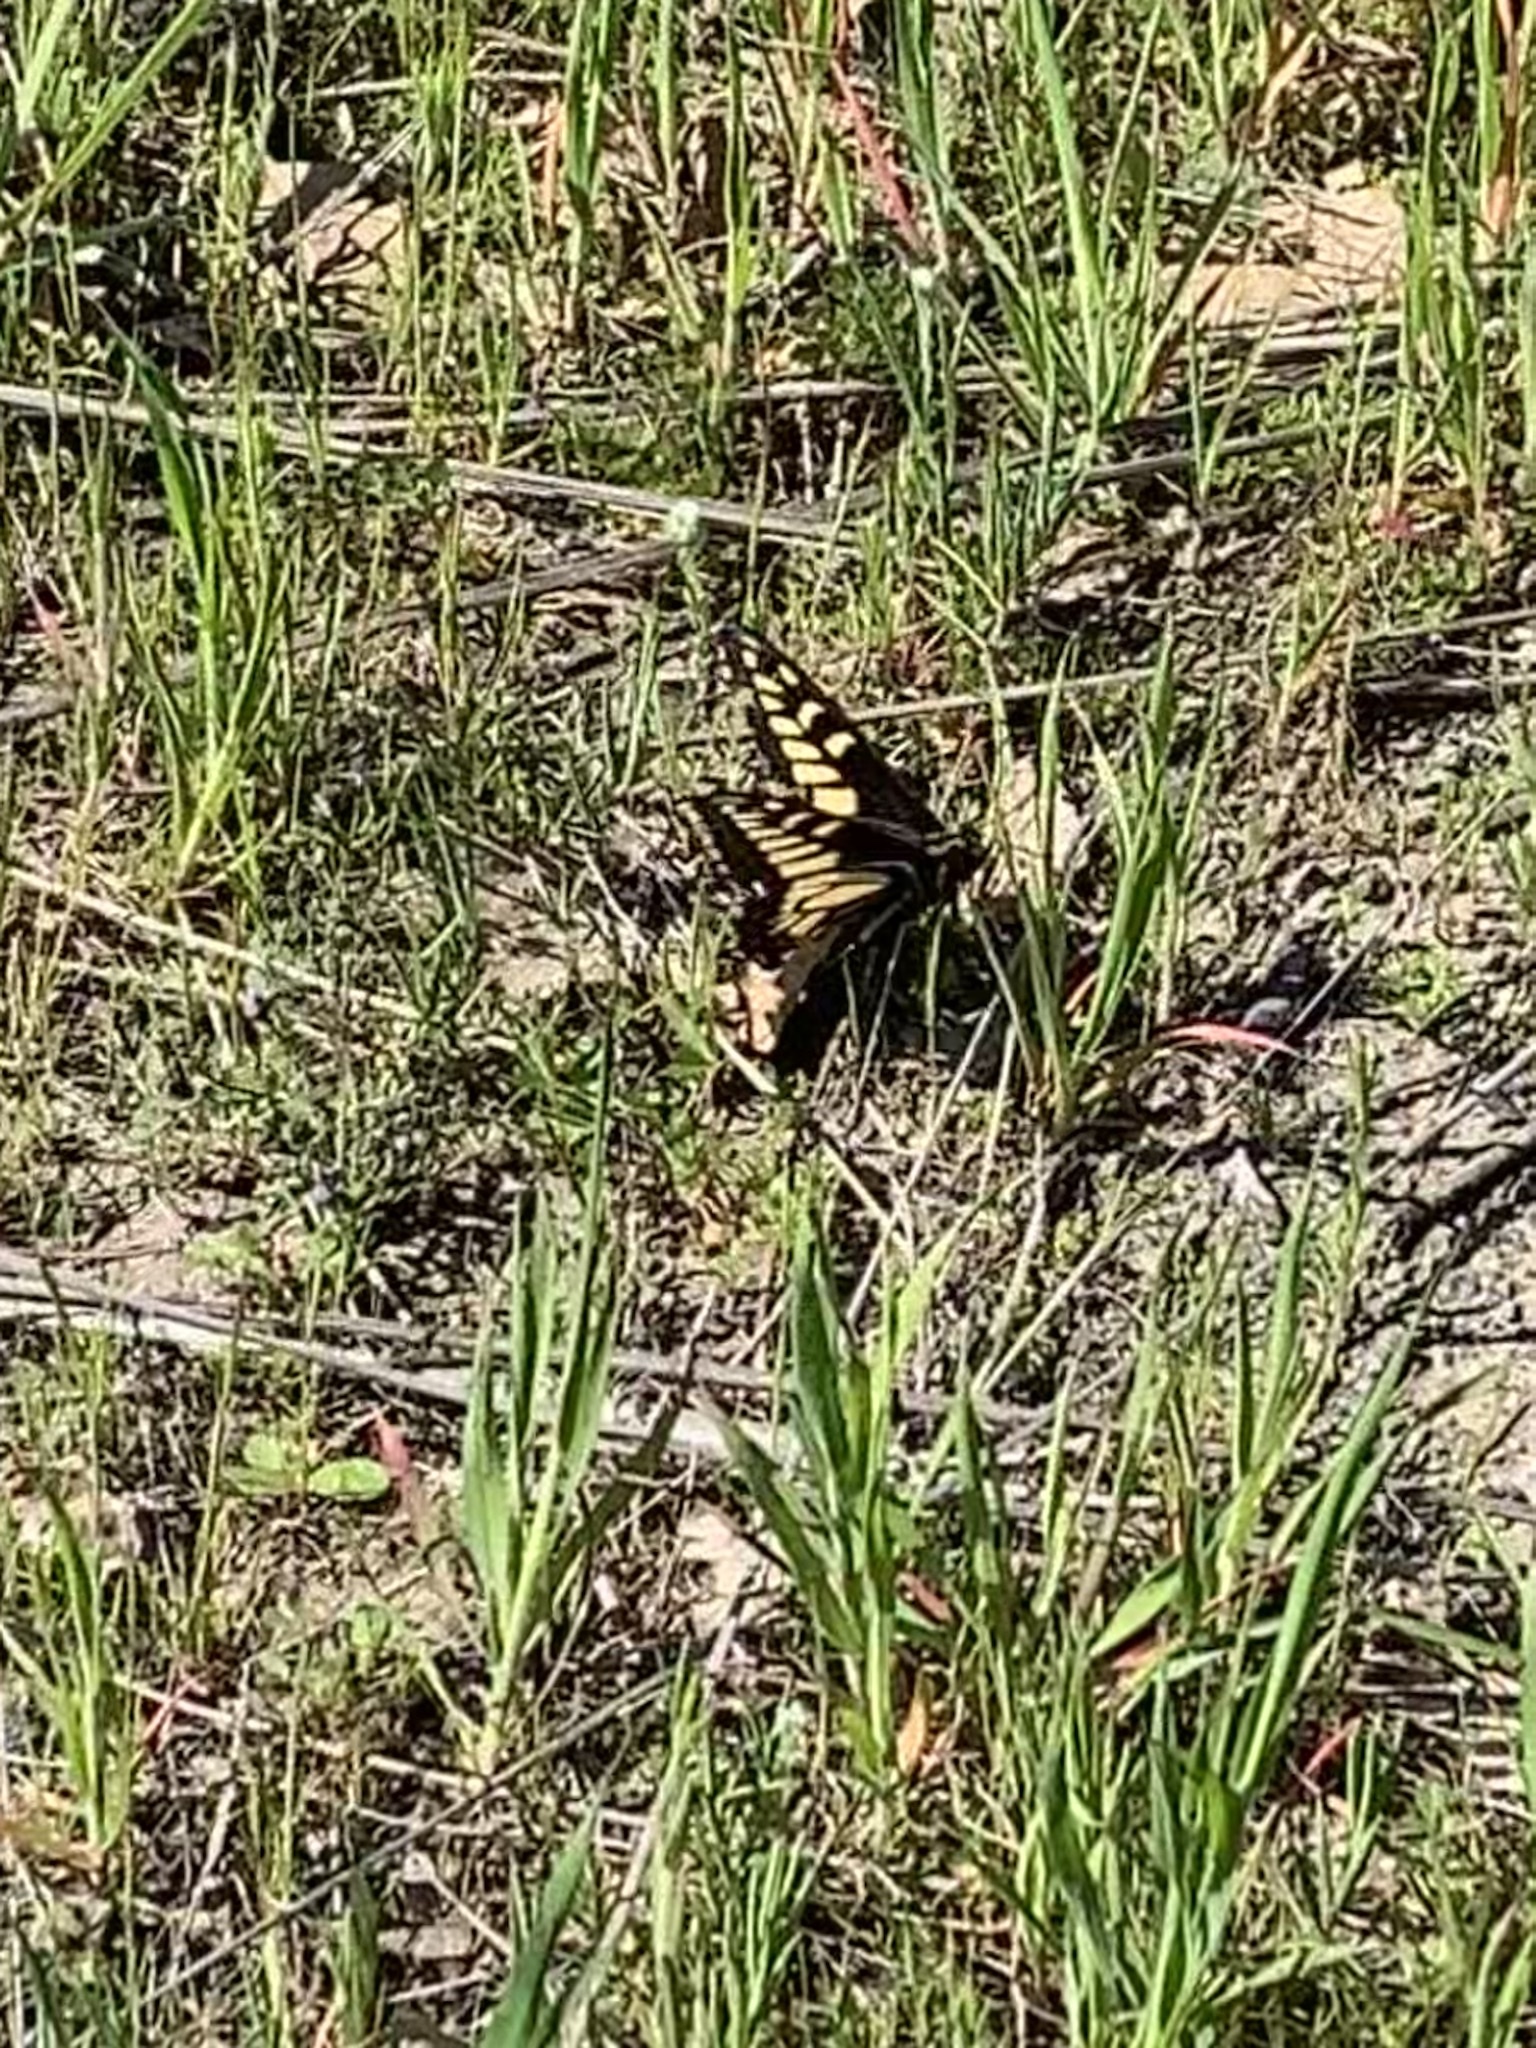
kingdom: Animalia
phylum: Arthropoda
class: Insecta
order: Lepidoptera
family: Papilionidae
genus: Papilio
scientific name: Papilio zelicaon
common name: Anise swallowtail
